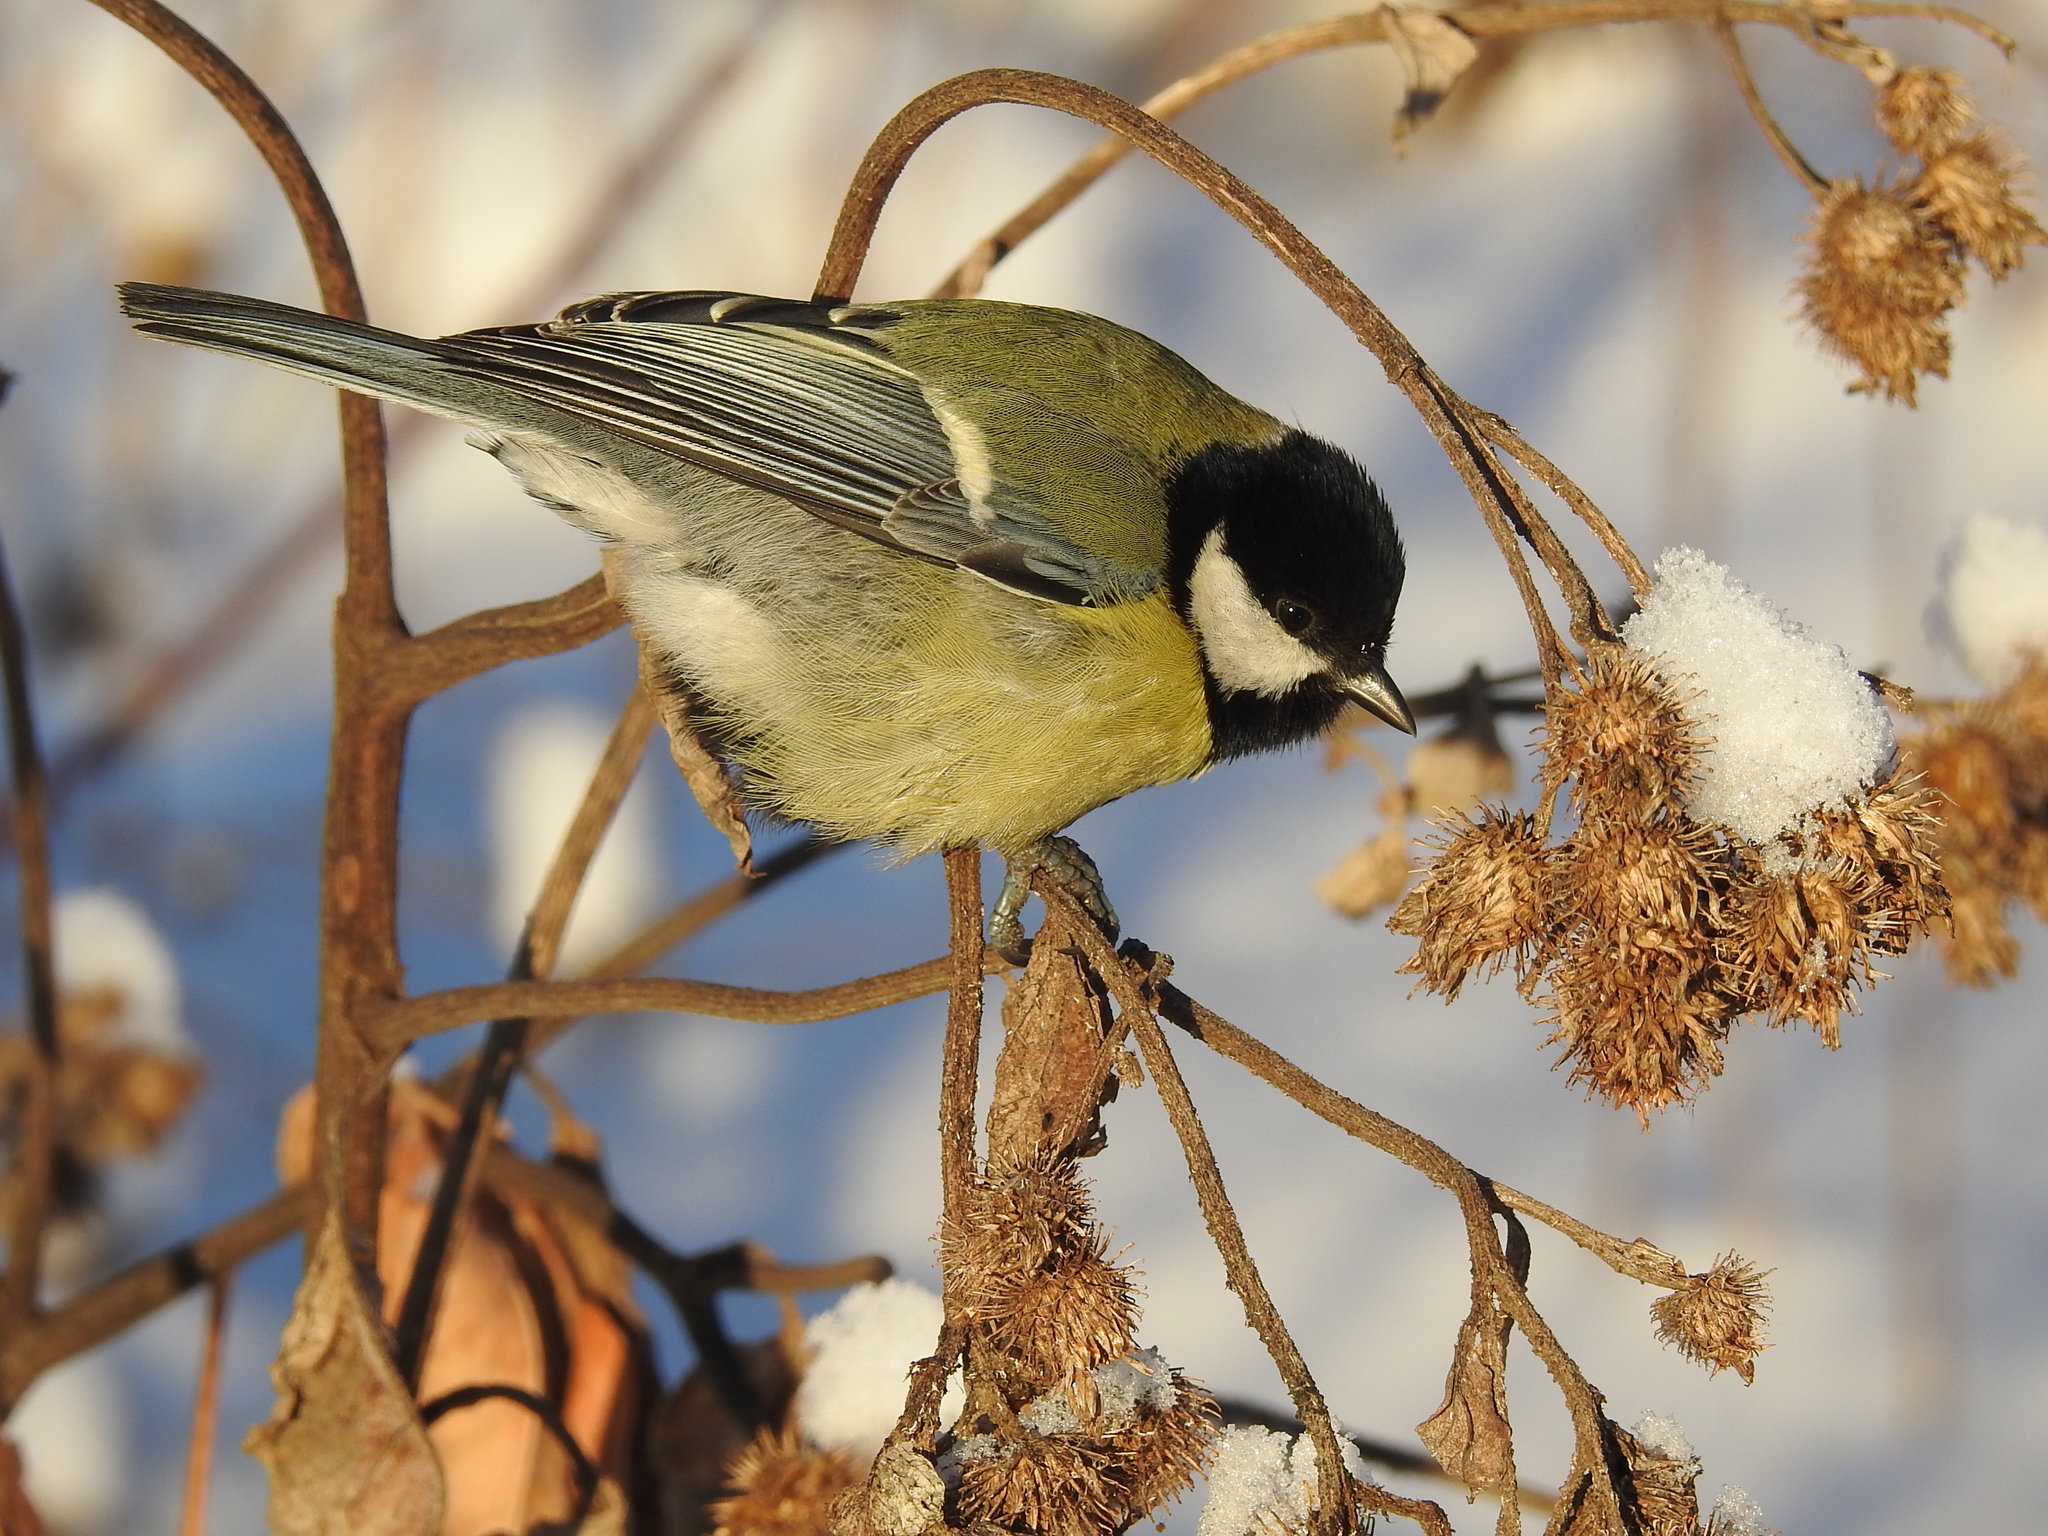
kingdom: Animalia
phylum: Chordata
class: Aves
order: Passeriformes
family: Paridae
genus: Parus
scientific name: Parus major
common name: Great tit
